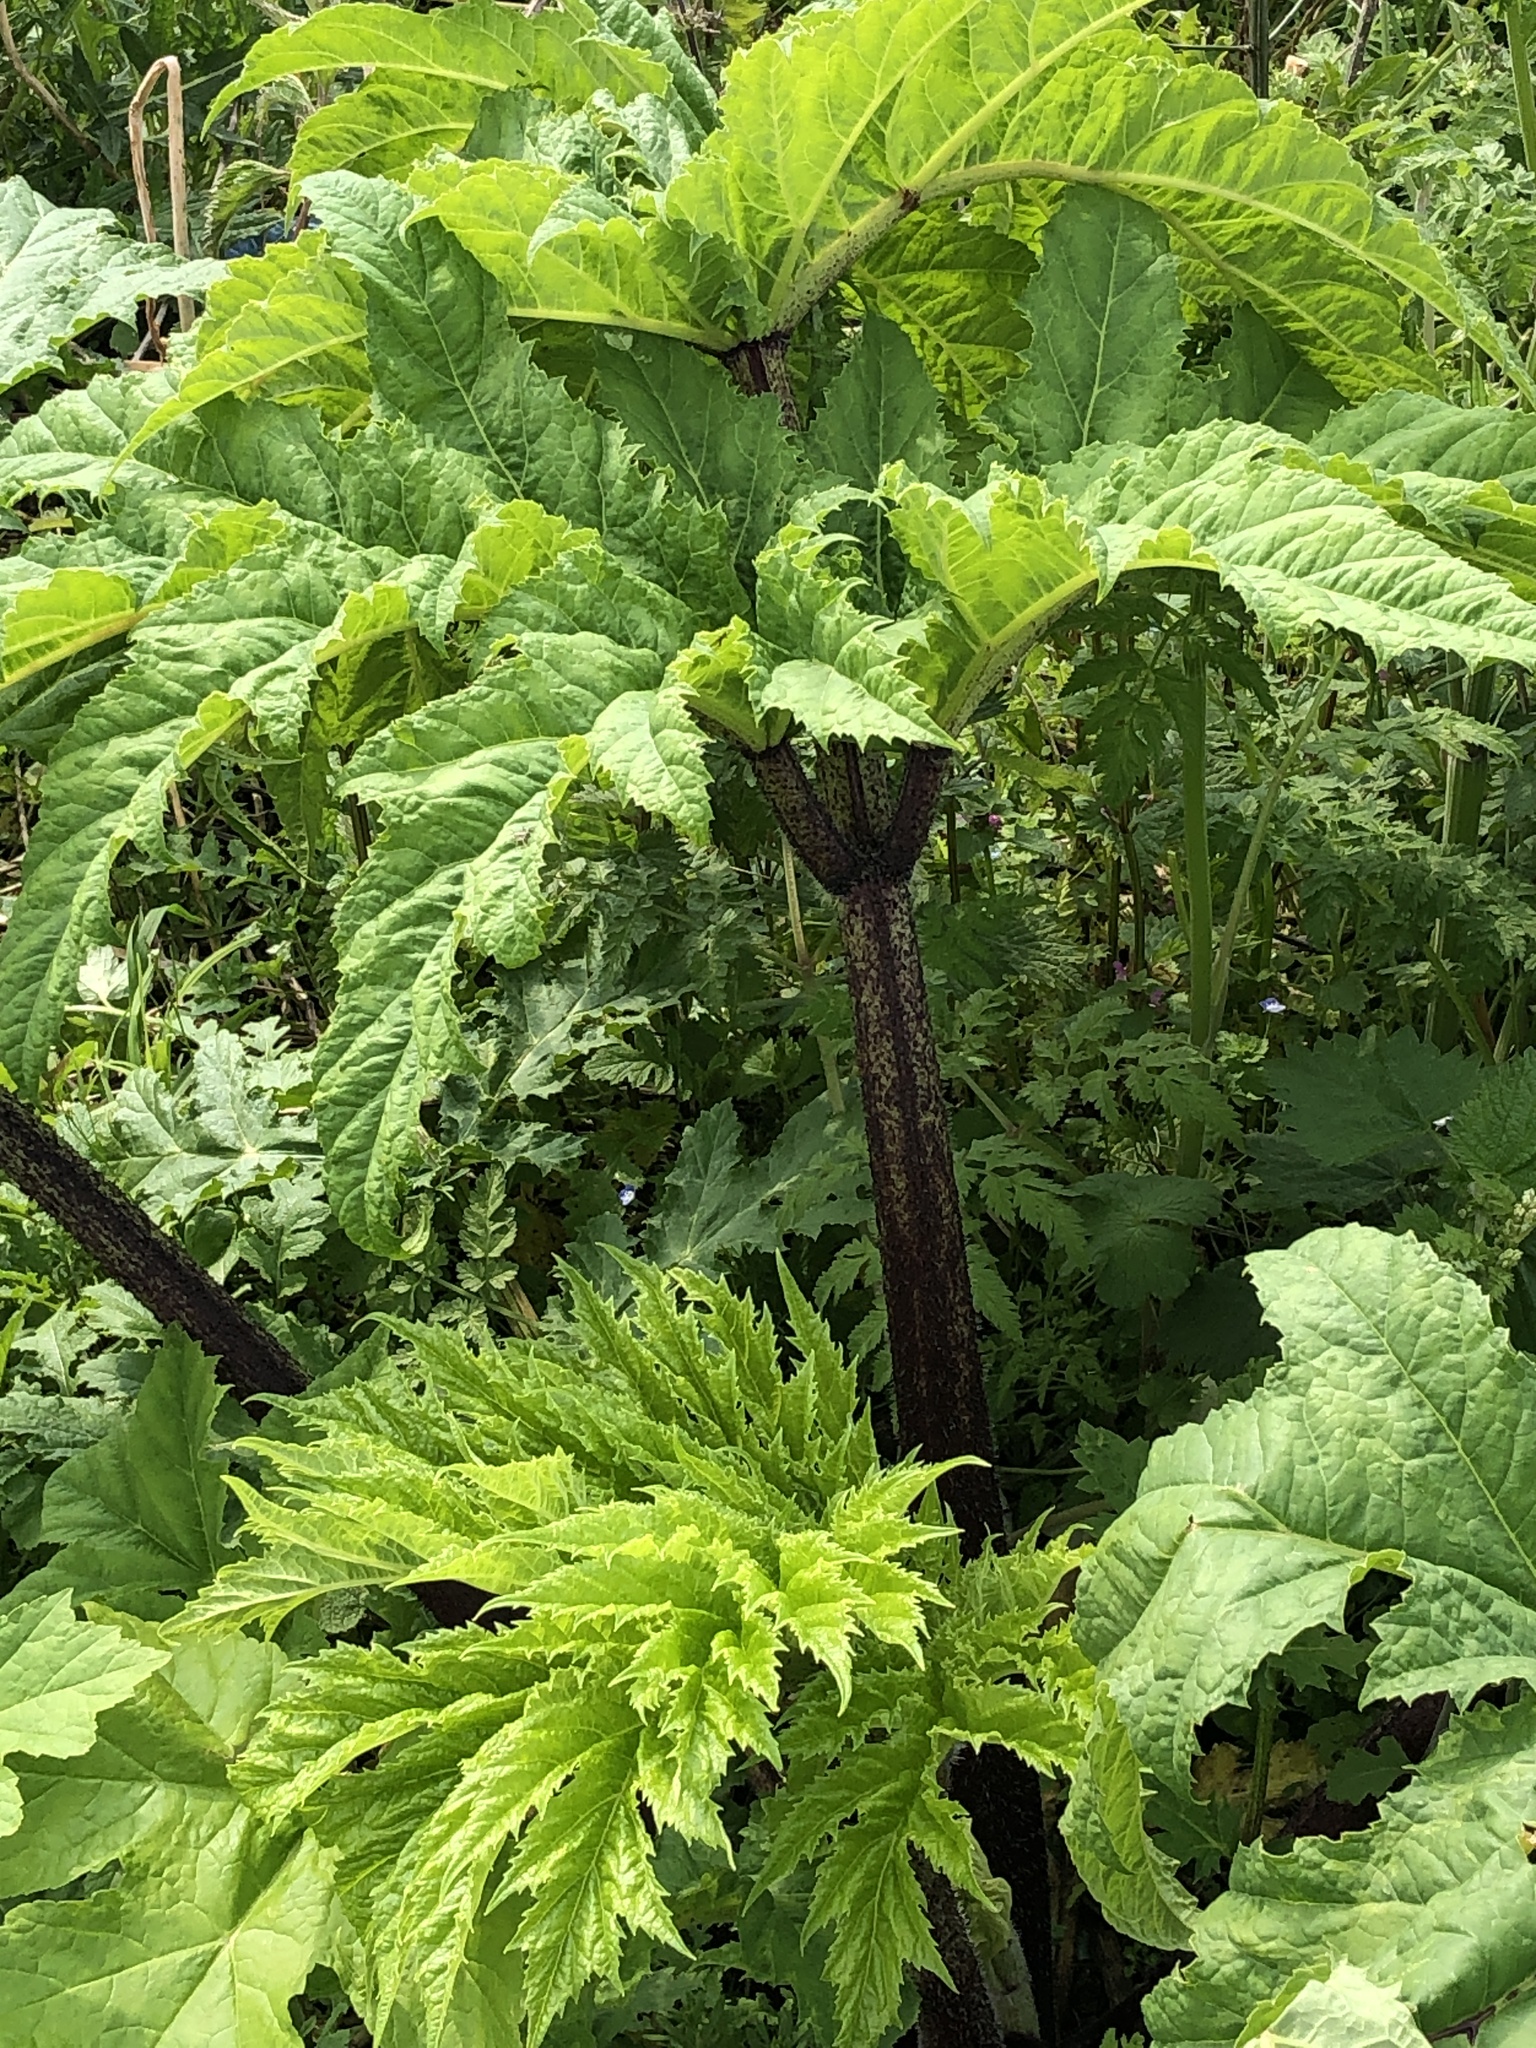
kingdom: Plantae
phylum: Tracheophyta
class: Magnoliopsida
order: Apiales
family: Apiaceae
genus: Heracleum
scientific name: Heracleum mantegazzianum
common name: Giant hogweed
